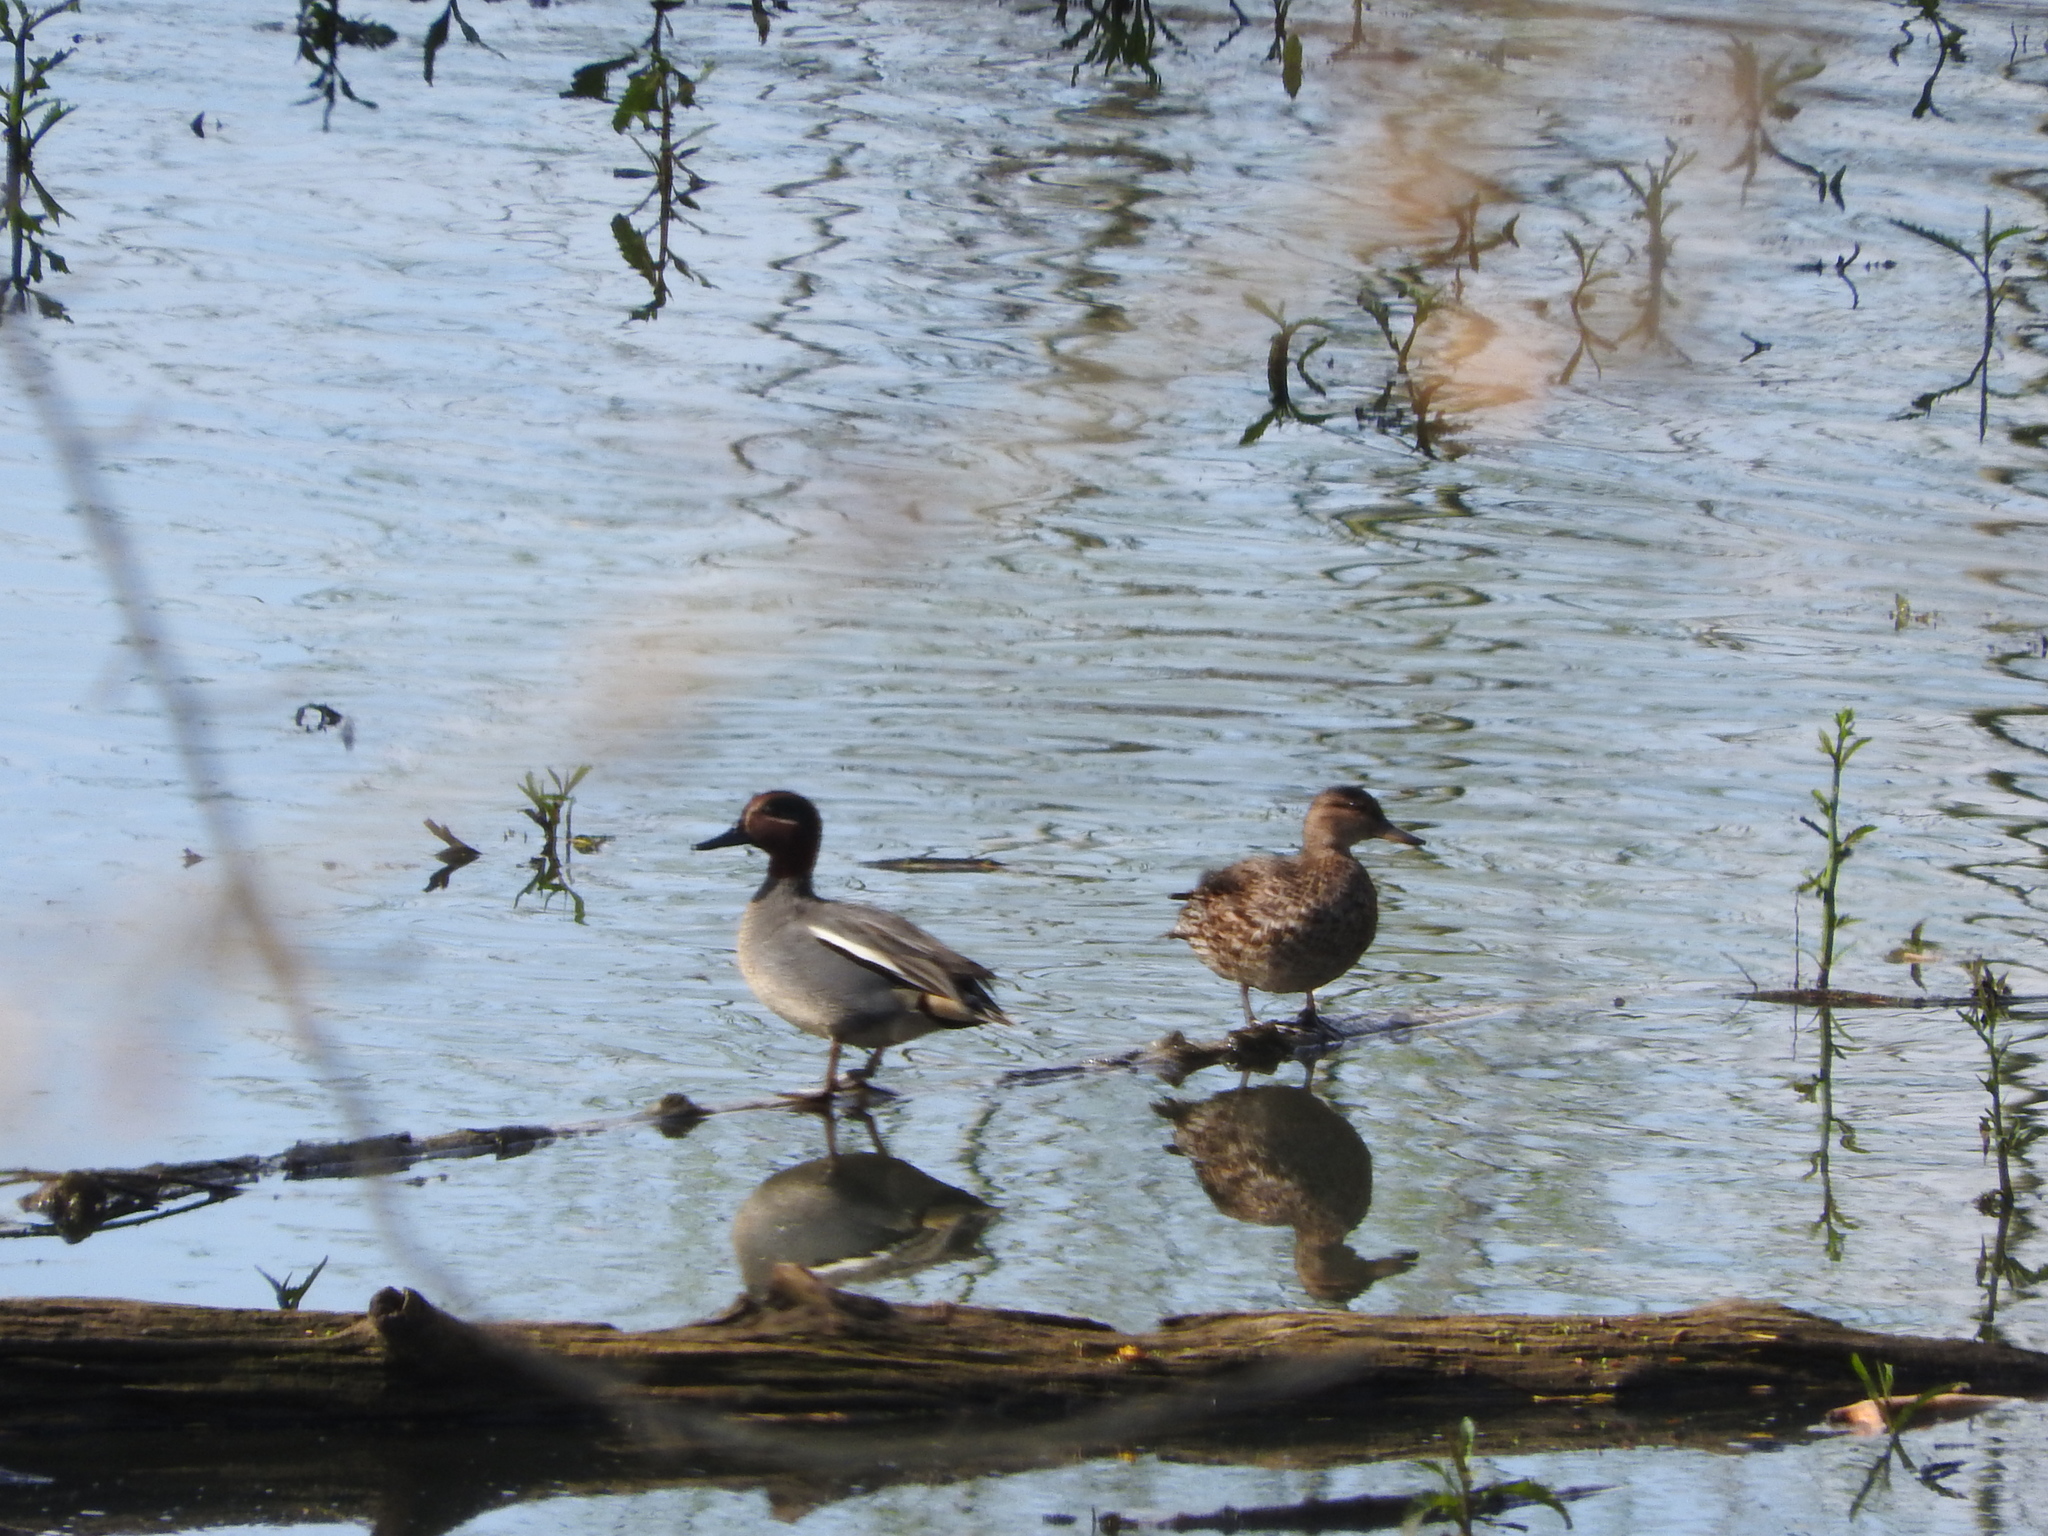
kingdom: Animalia
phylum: Chordata
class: Aves
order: Anseriformes
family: Anatidae
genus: Anas
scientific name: Anas crecca
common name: Eurasian teal
